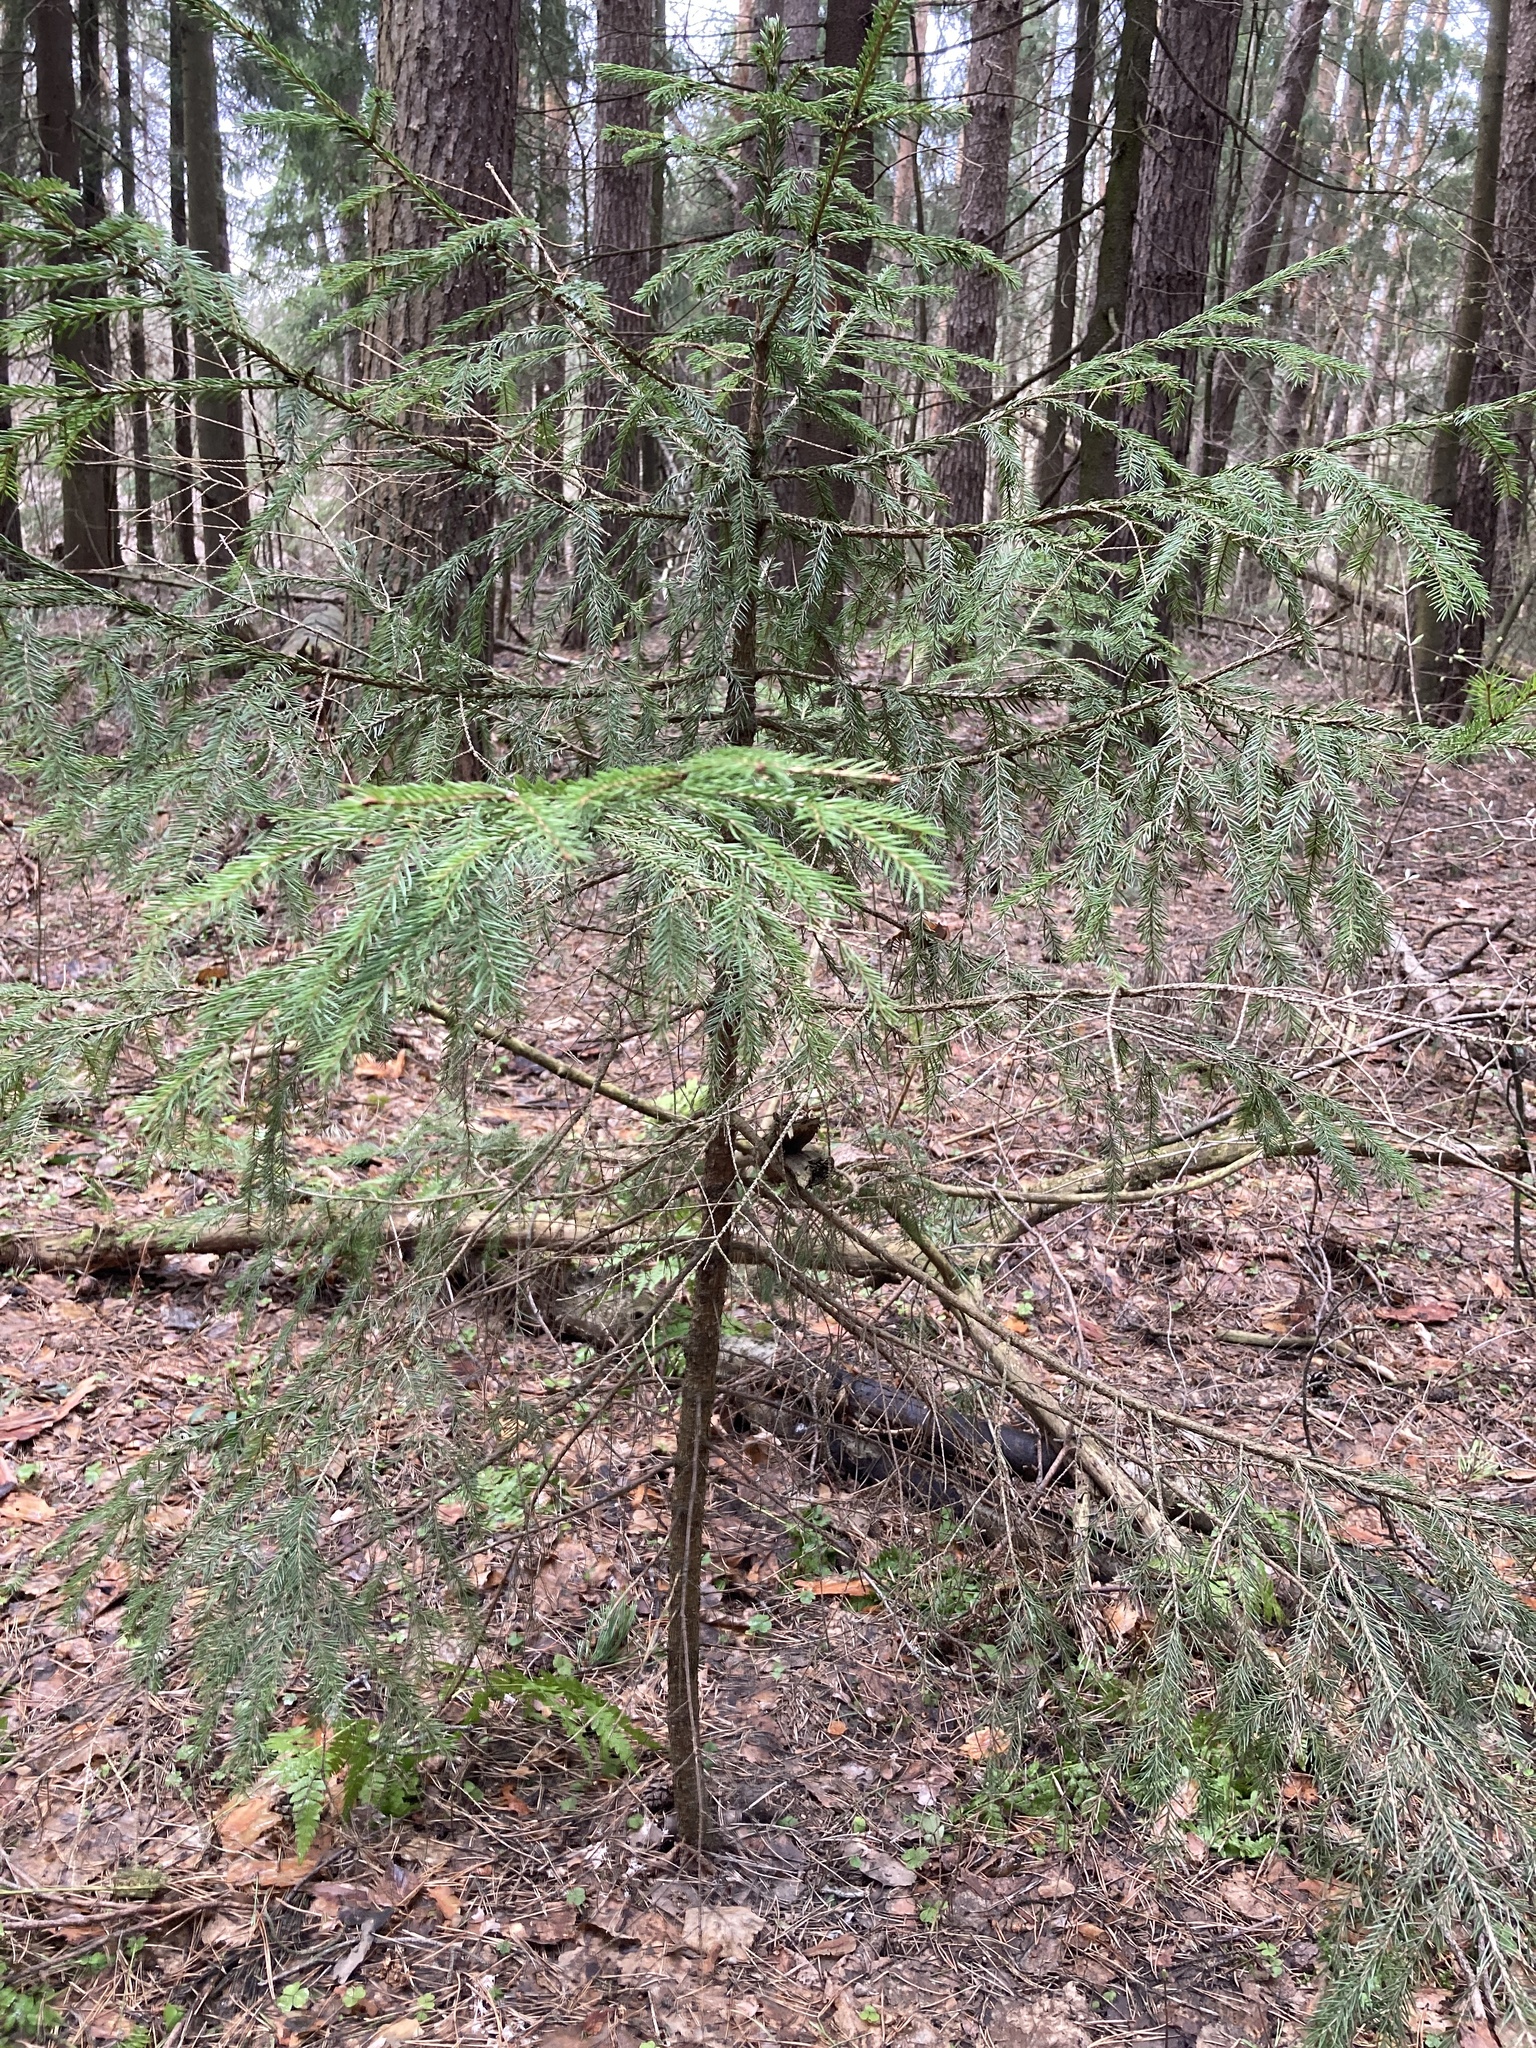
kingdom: Plantae
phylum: Tracheophyta
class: Pinopsida
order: Pinales
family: Pinaceae
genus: Picea
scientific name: Picea abies
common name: Norway spruce
